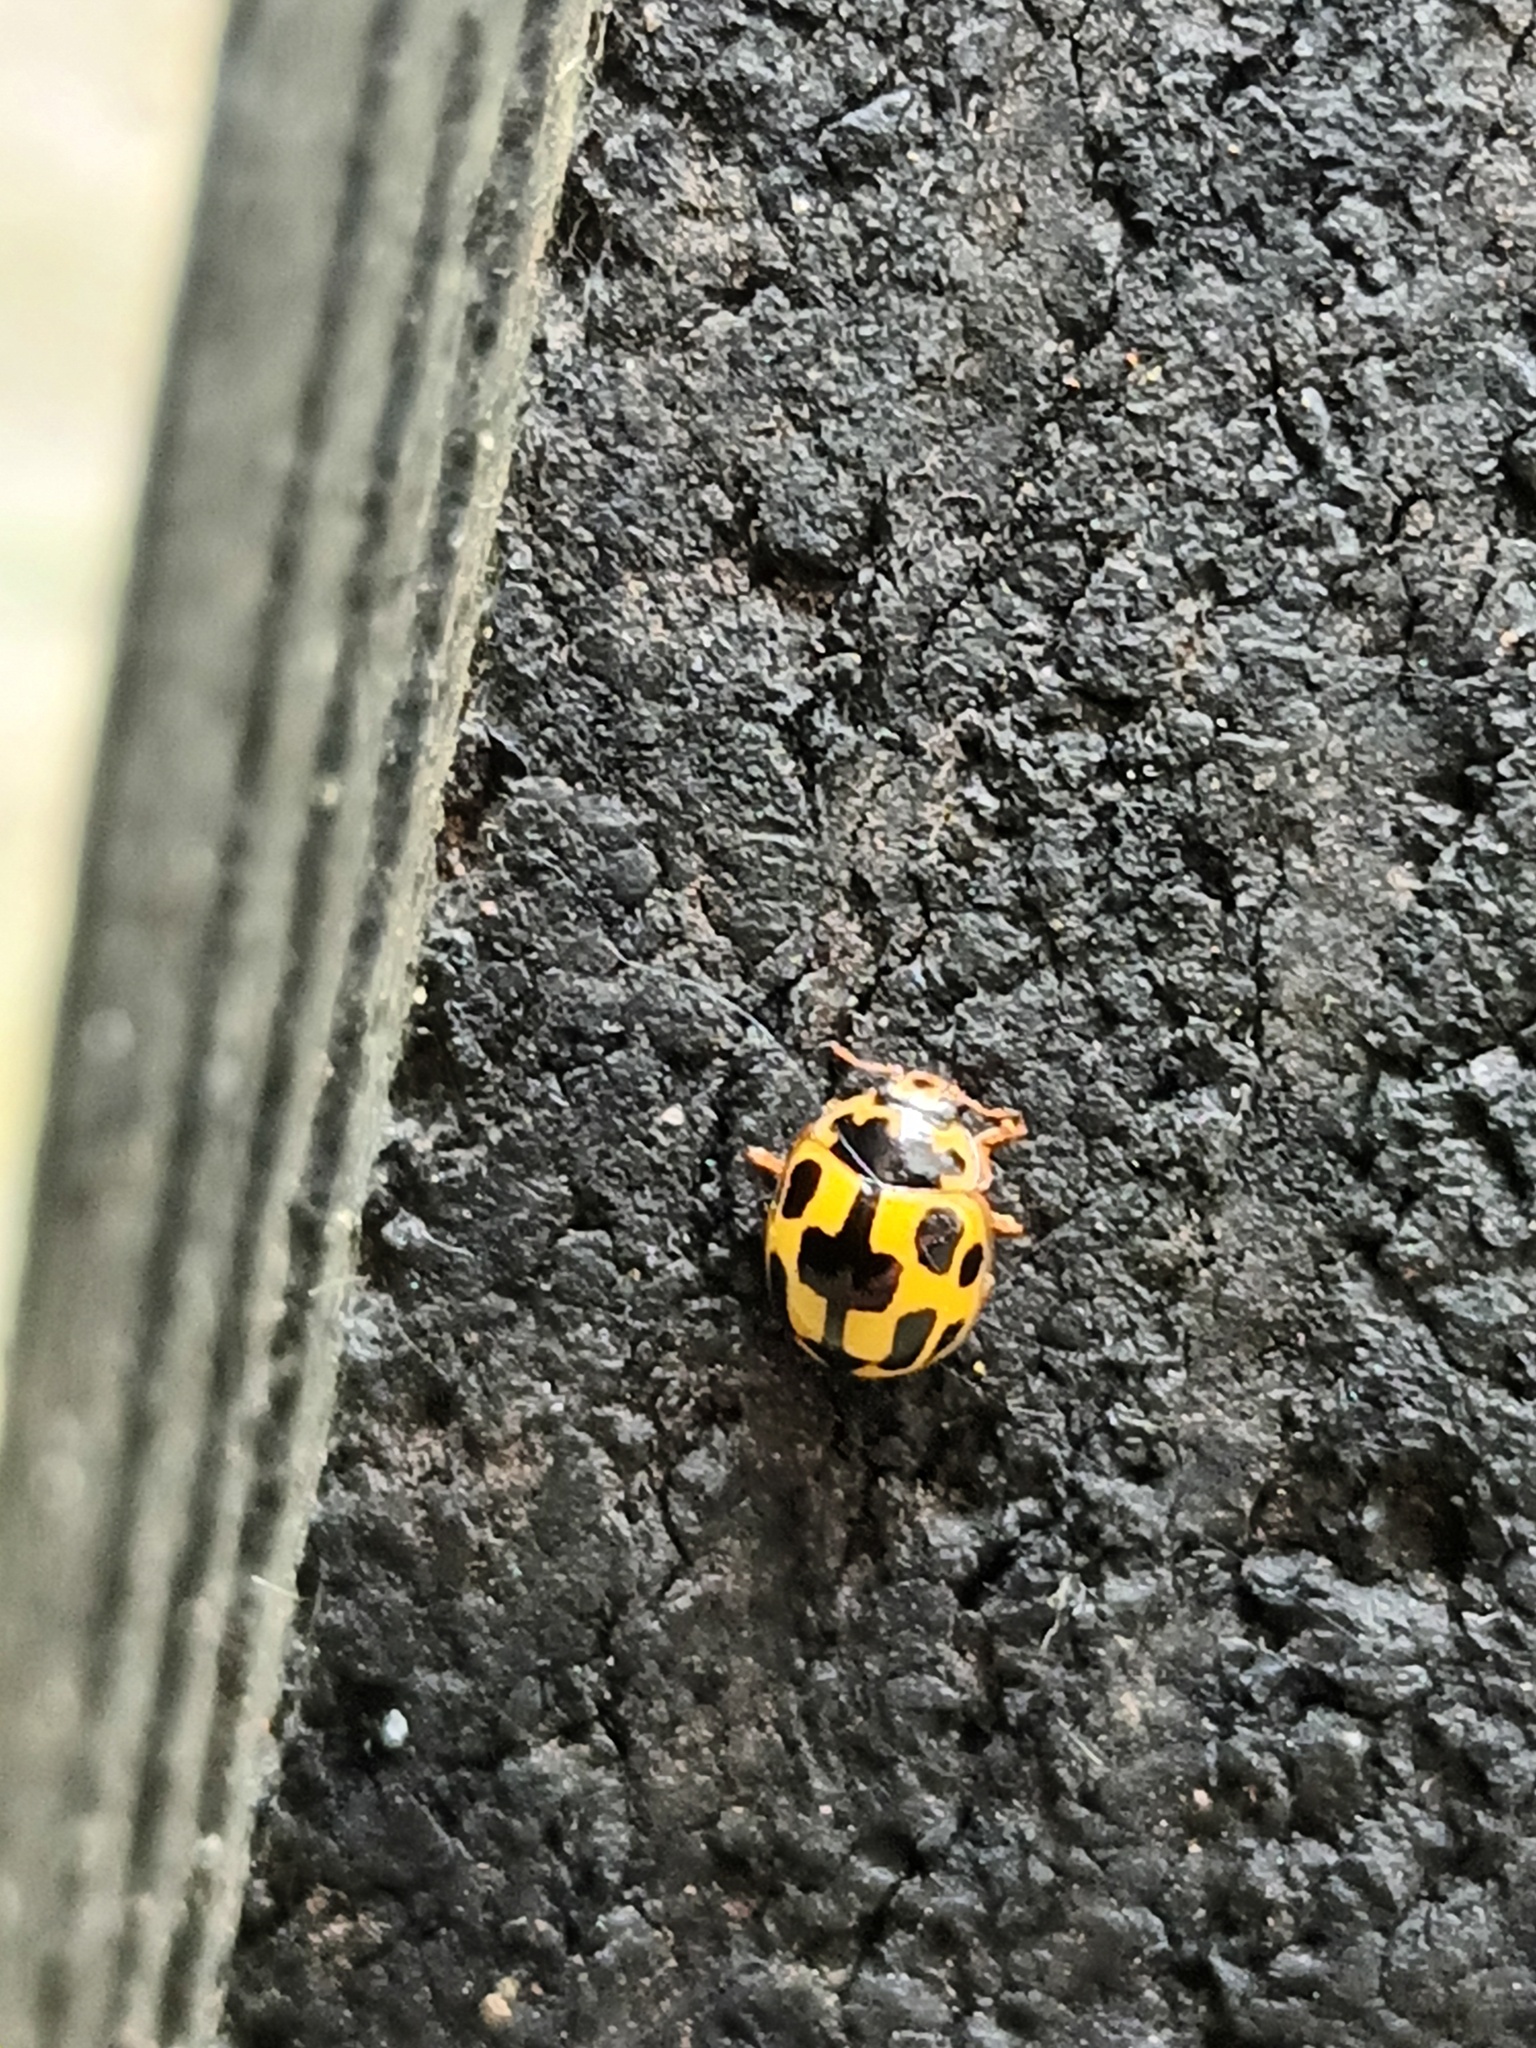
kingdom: Animalia
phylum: Arthropoda
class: Insecta
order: Coleoptera
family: Coccinellidae
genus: Propylaea
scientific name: Propylaea quatuordecimpunctata
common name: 14-spotted ladybird beetle
